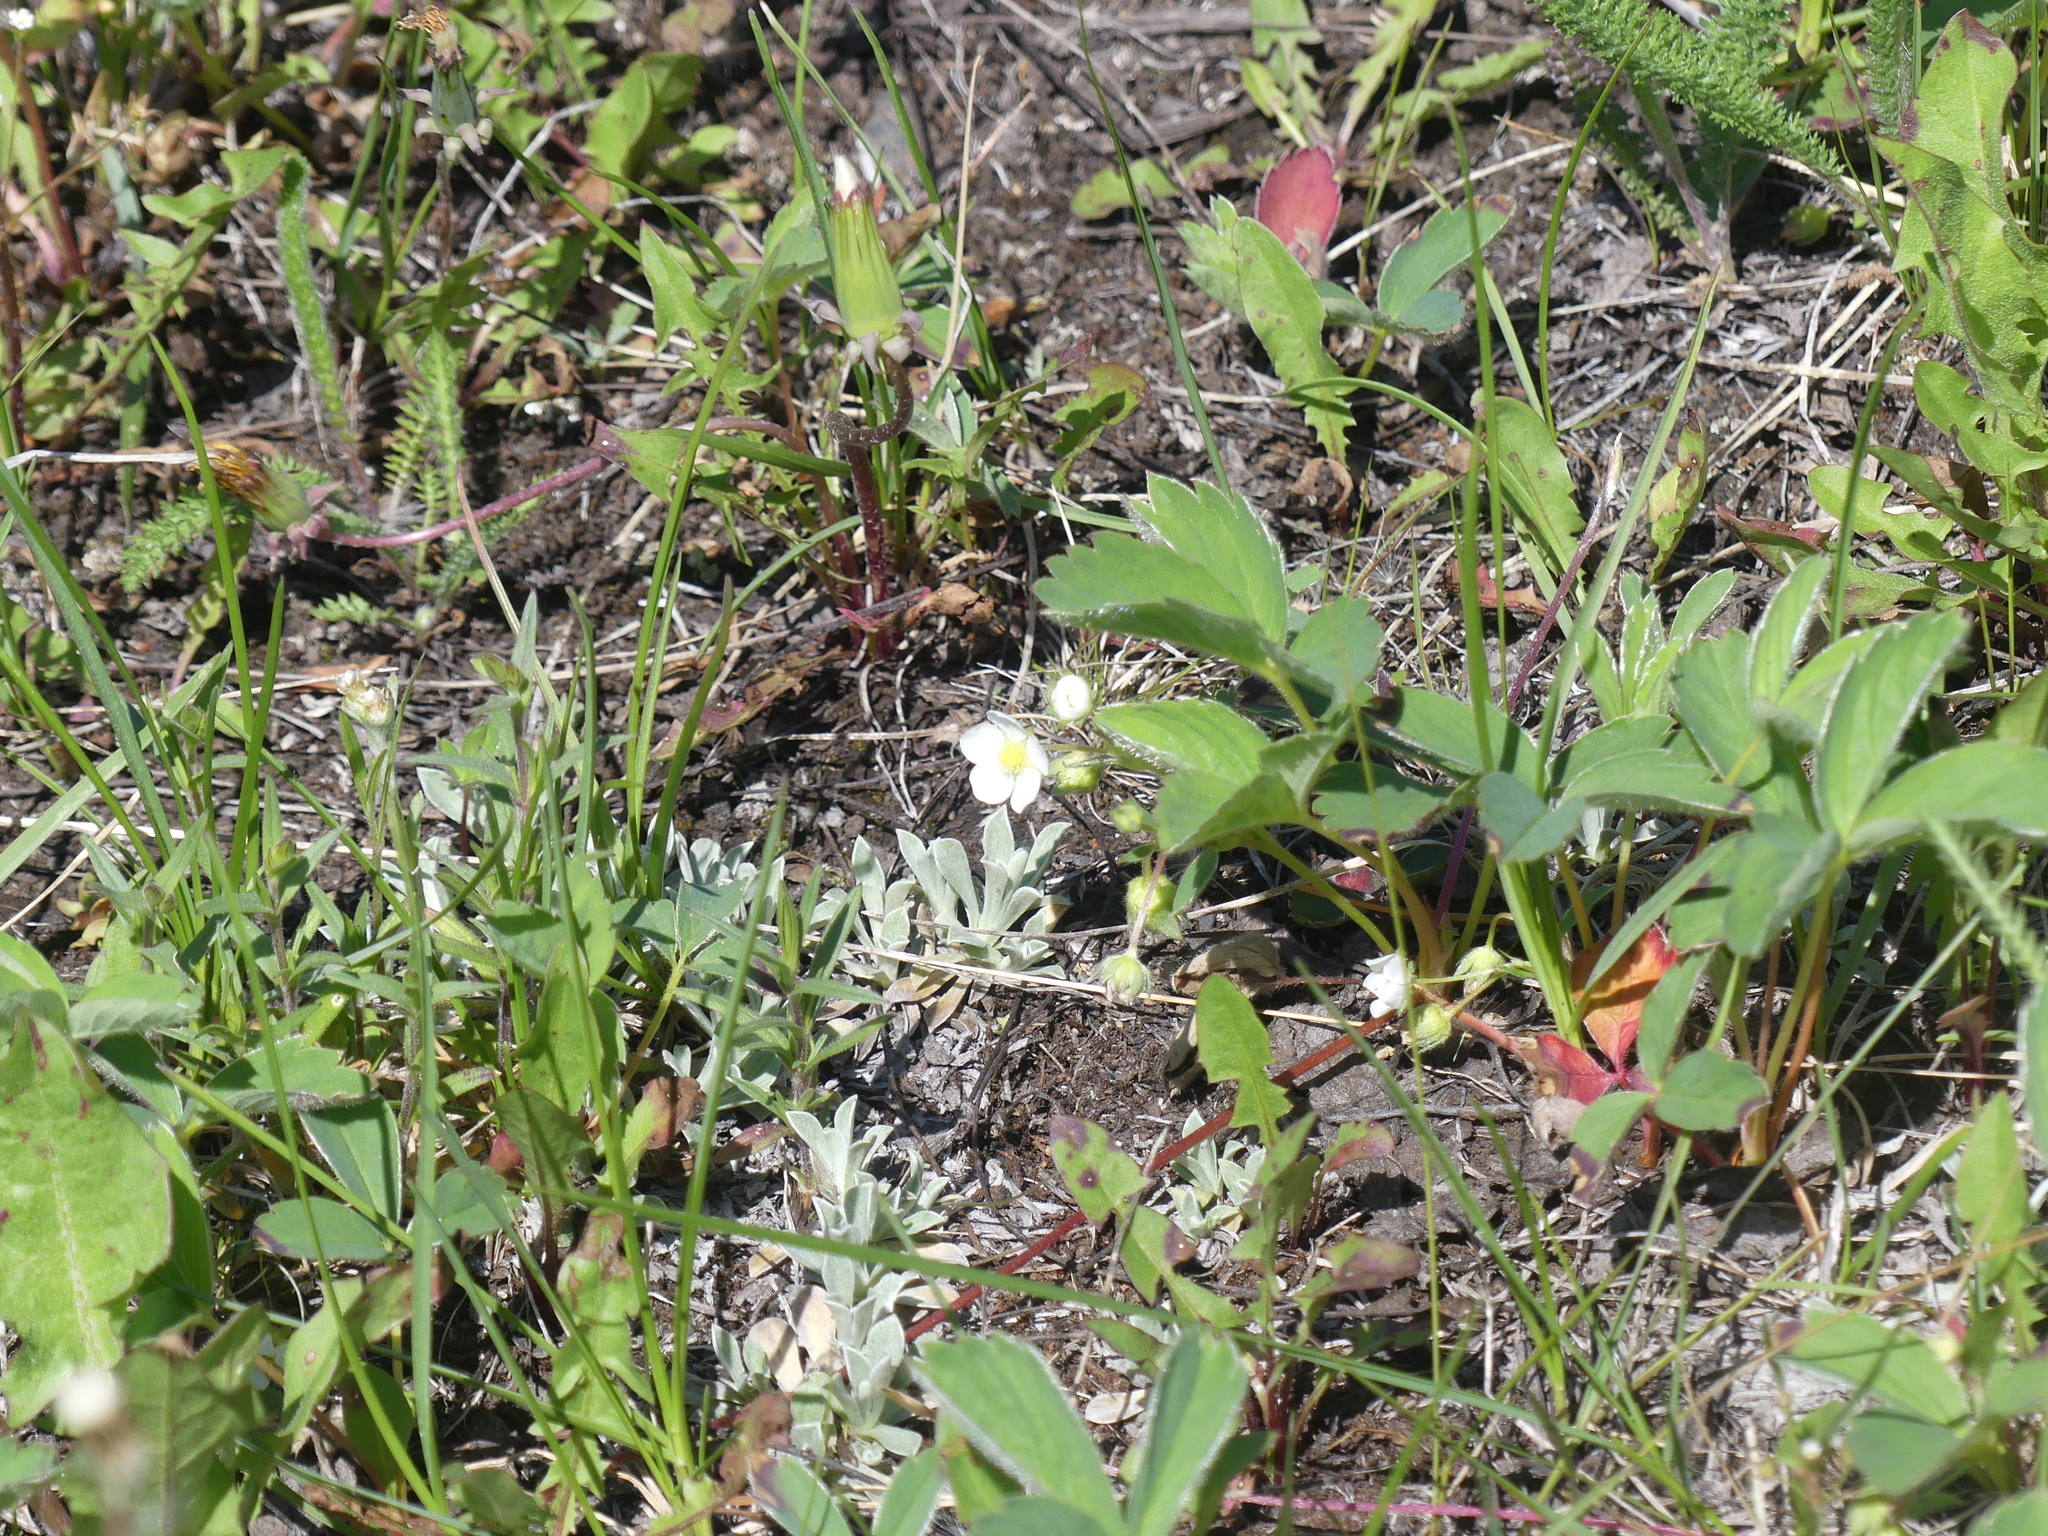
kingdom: Plantae
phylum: Tracheophyta
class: Magnoliopsida
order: Rosales
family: Rosaceae
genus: Fragaria
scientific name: Fragaria virginiana
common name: Thickleaved wild strawberry
